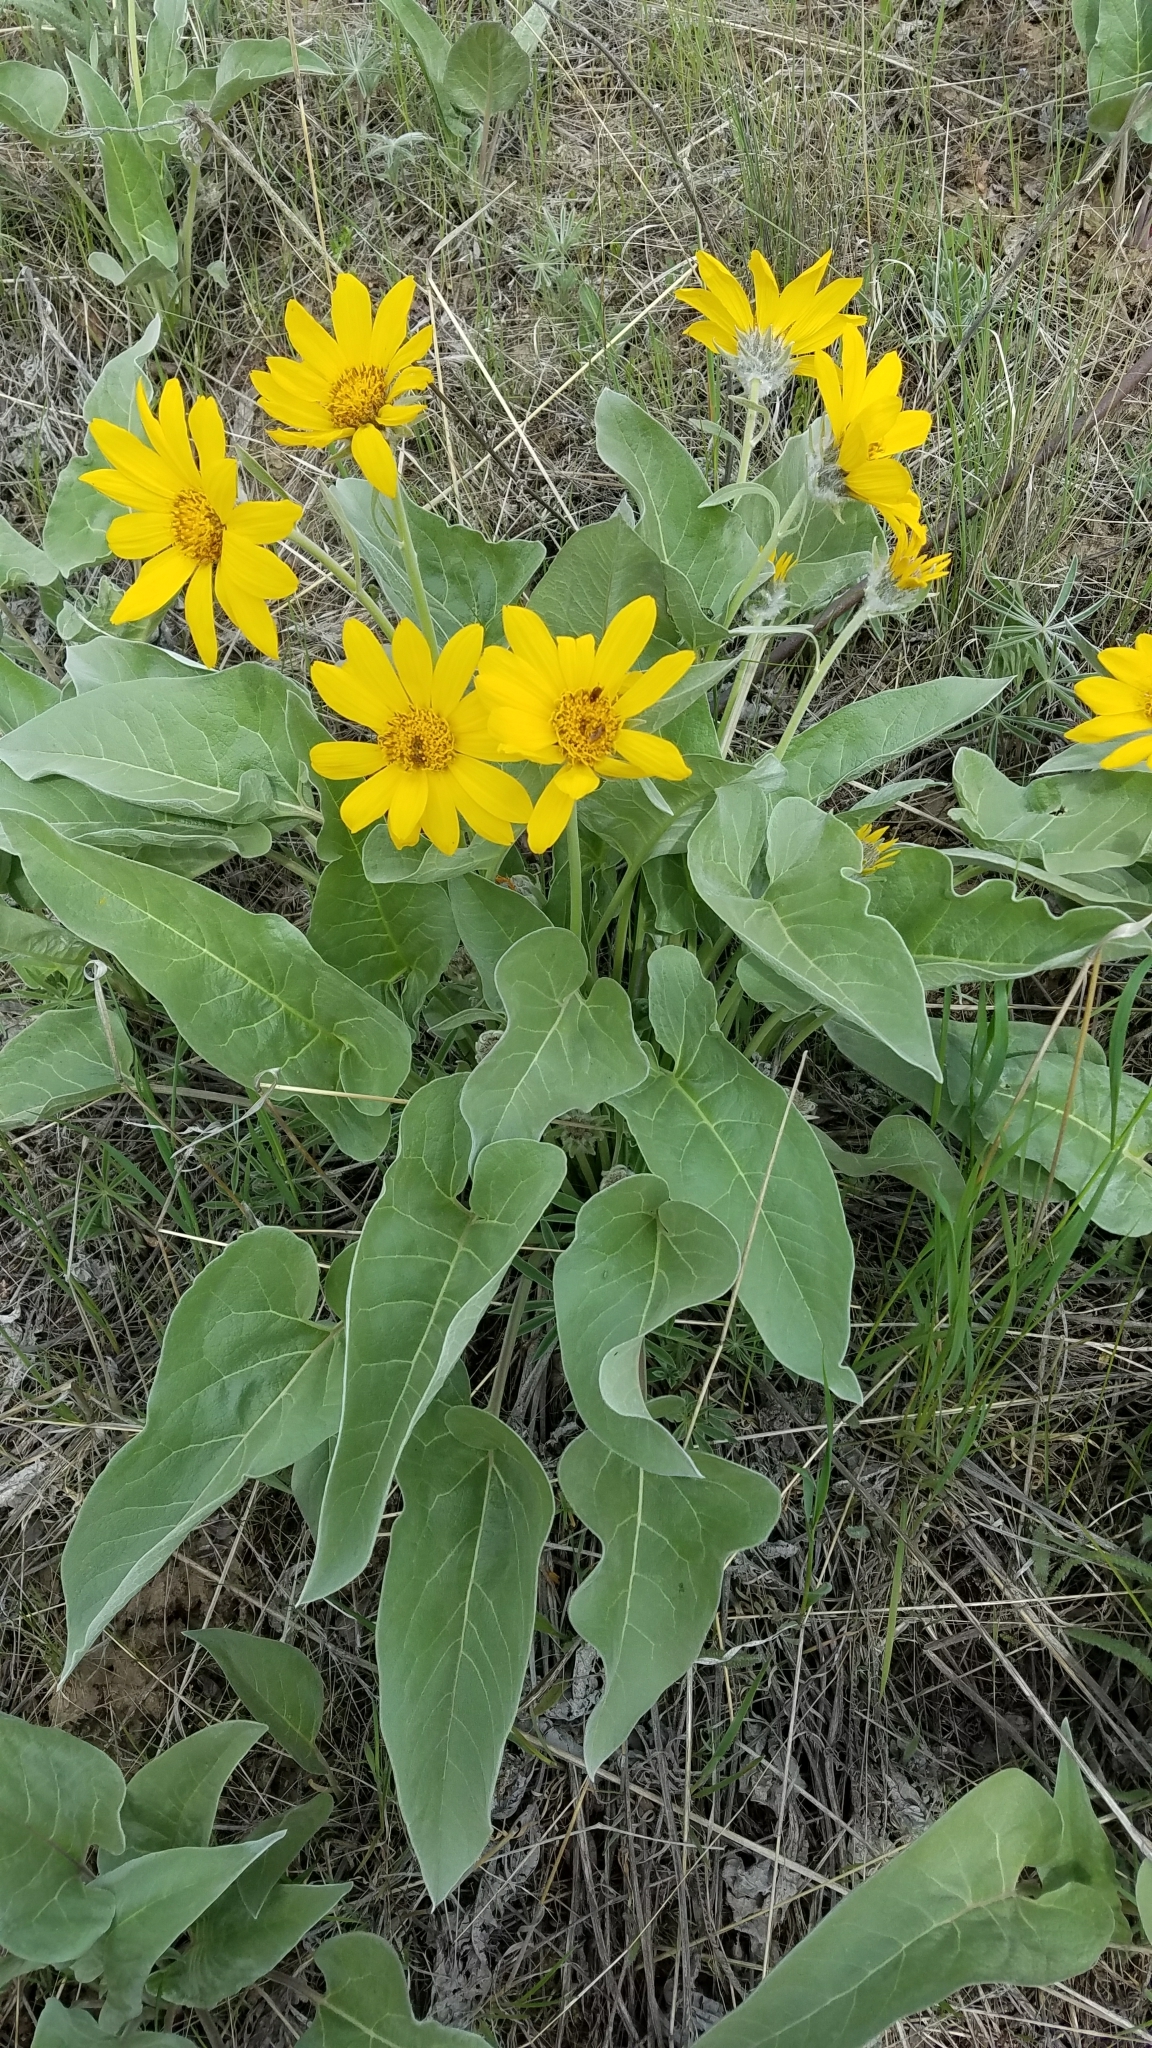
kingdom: Plantae
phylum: Tracheophyta
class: Magnoliopsida
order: Asterales
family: Asteraceae
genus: Wyethia
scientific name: Wyethia sagittata
